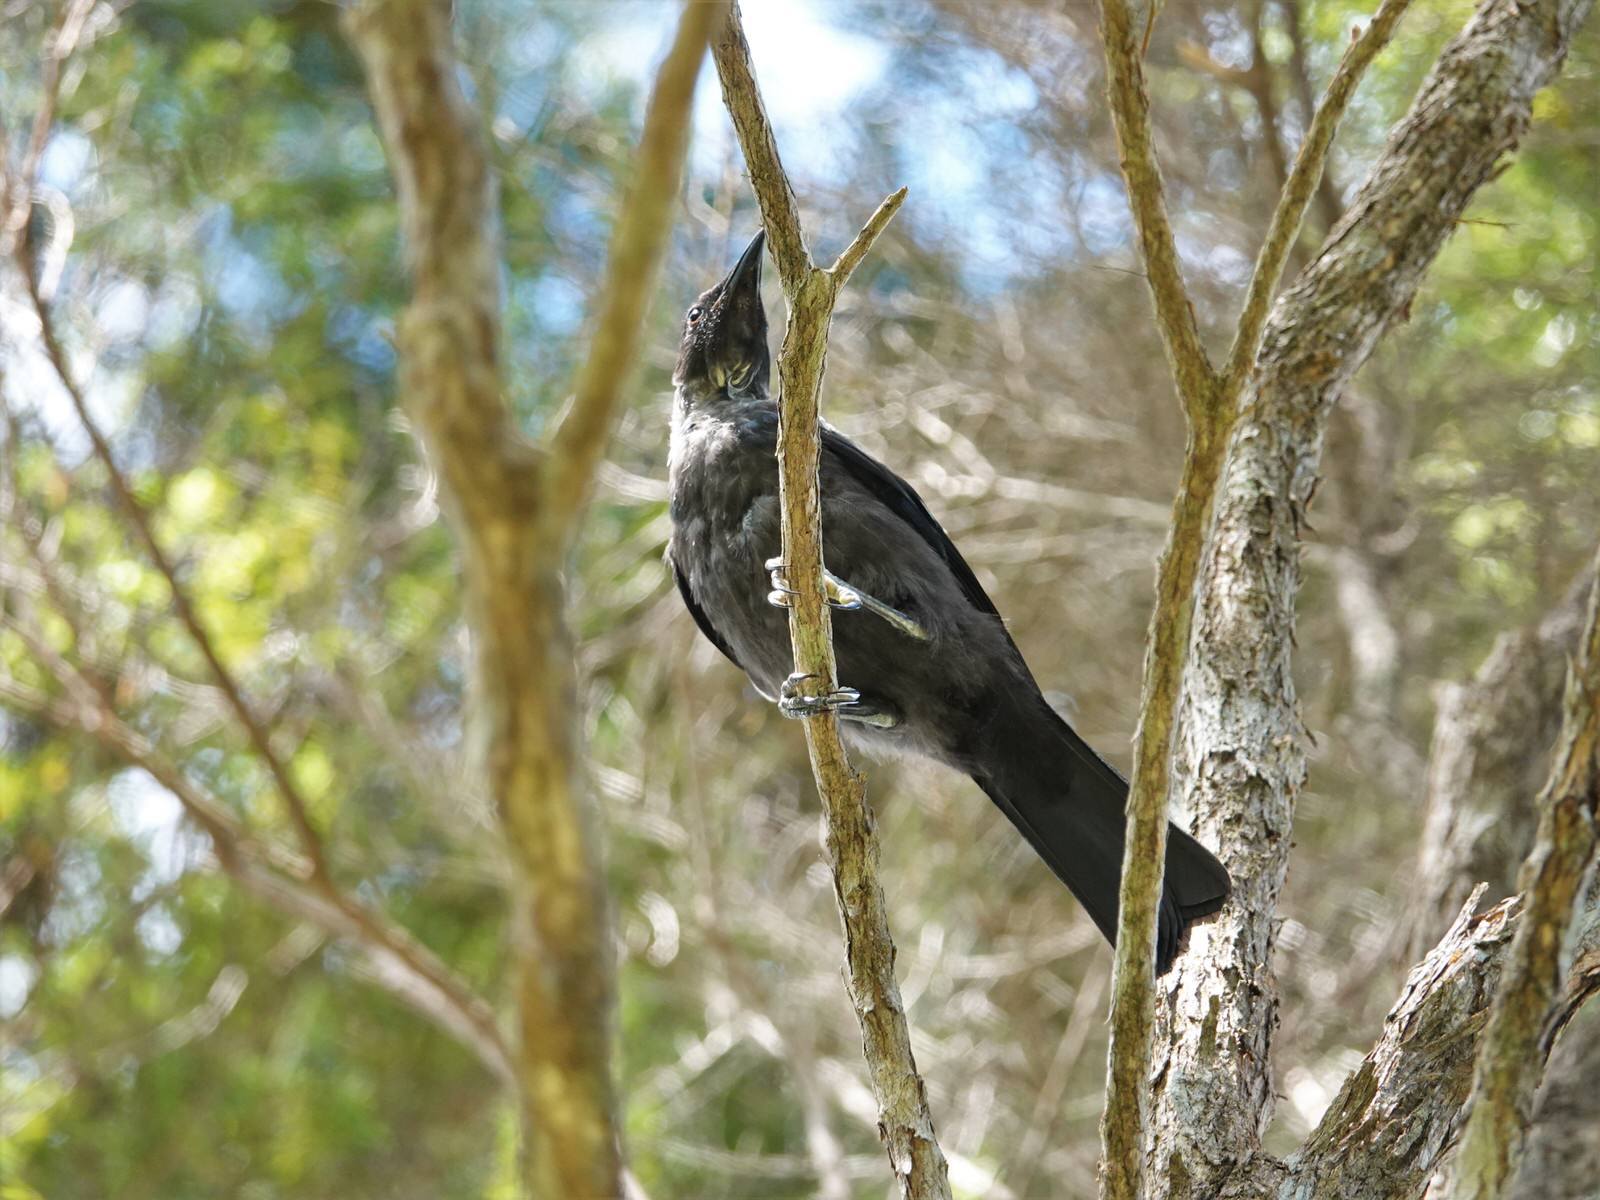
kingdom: Animalia
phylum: Chordata
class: Aves
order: Passeriformes
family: Meliphagidae
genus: Prosthemadera
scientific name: Prosthemadera novaeseelandiae
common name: Tui
